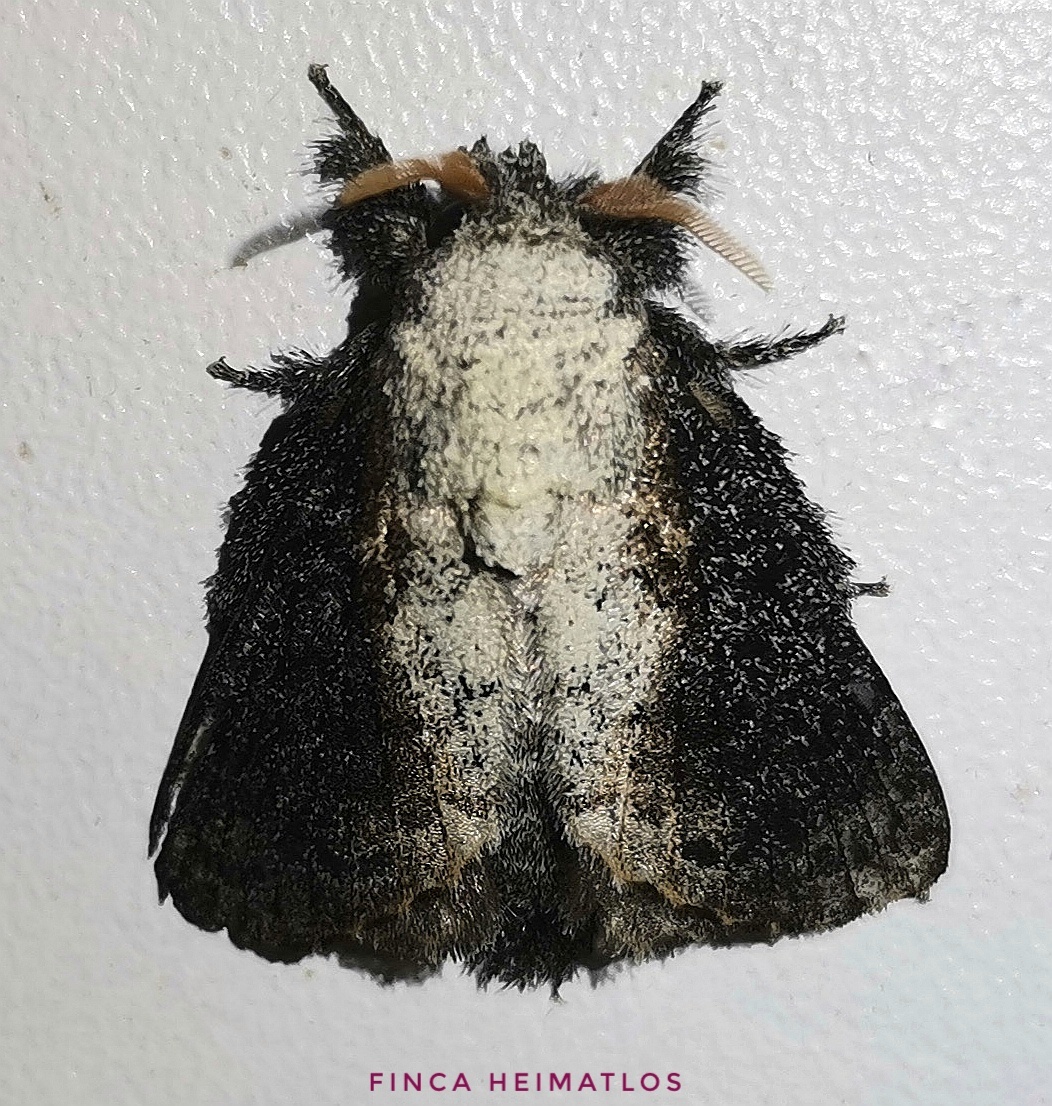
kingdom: Animalia
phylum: Arthropoda
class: Insecta
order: Lepidoptera
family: Lasiocampidae
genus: Euglyphis
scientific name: Euglyphis pumayaca
